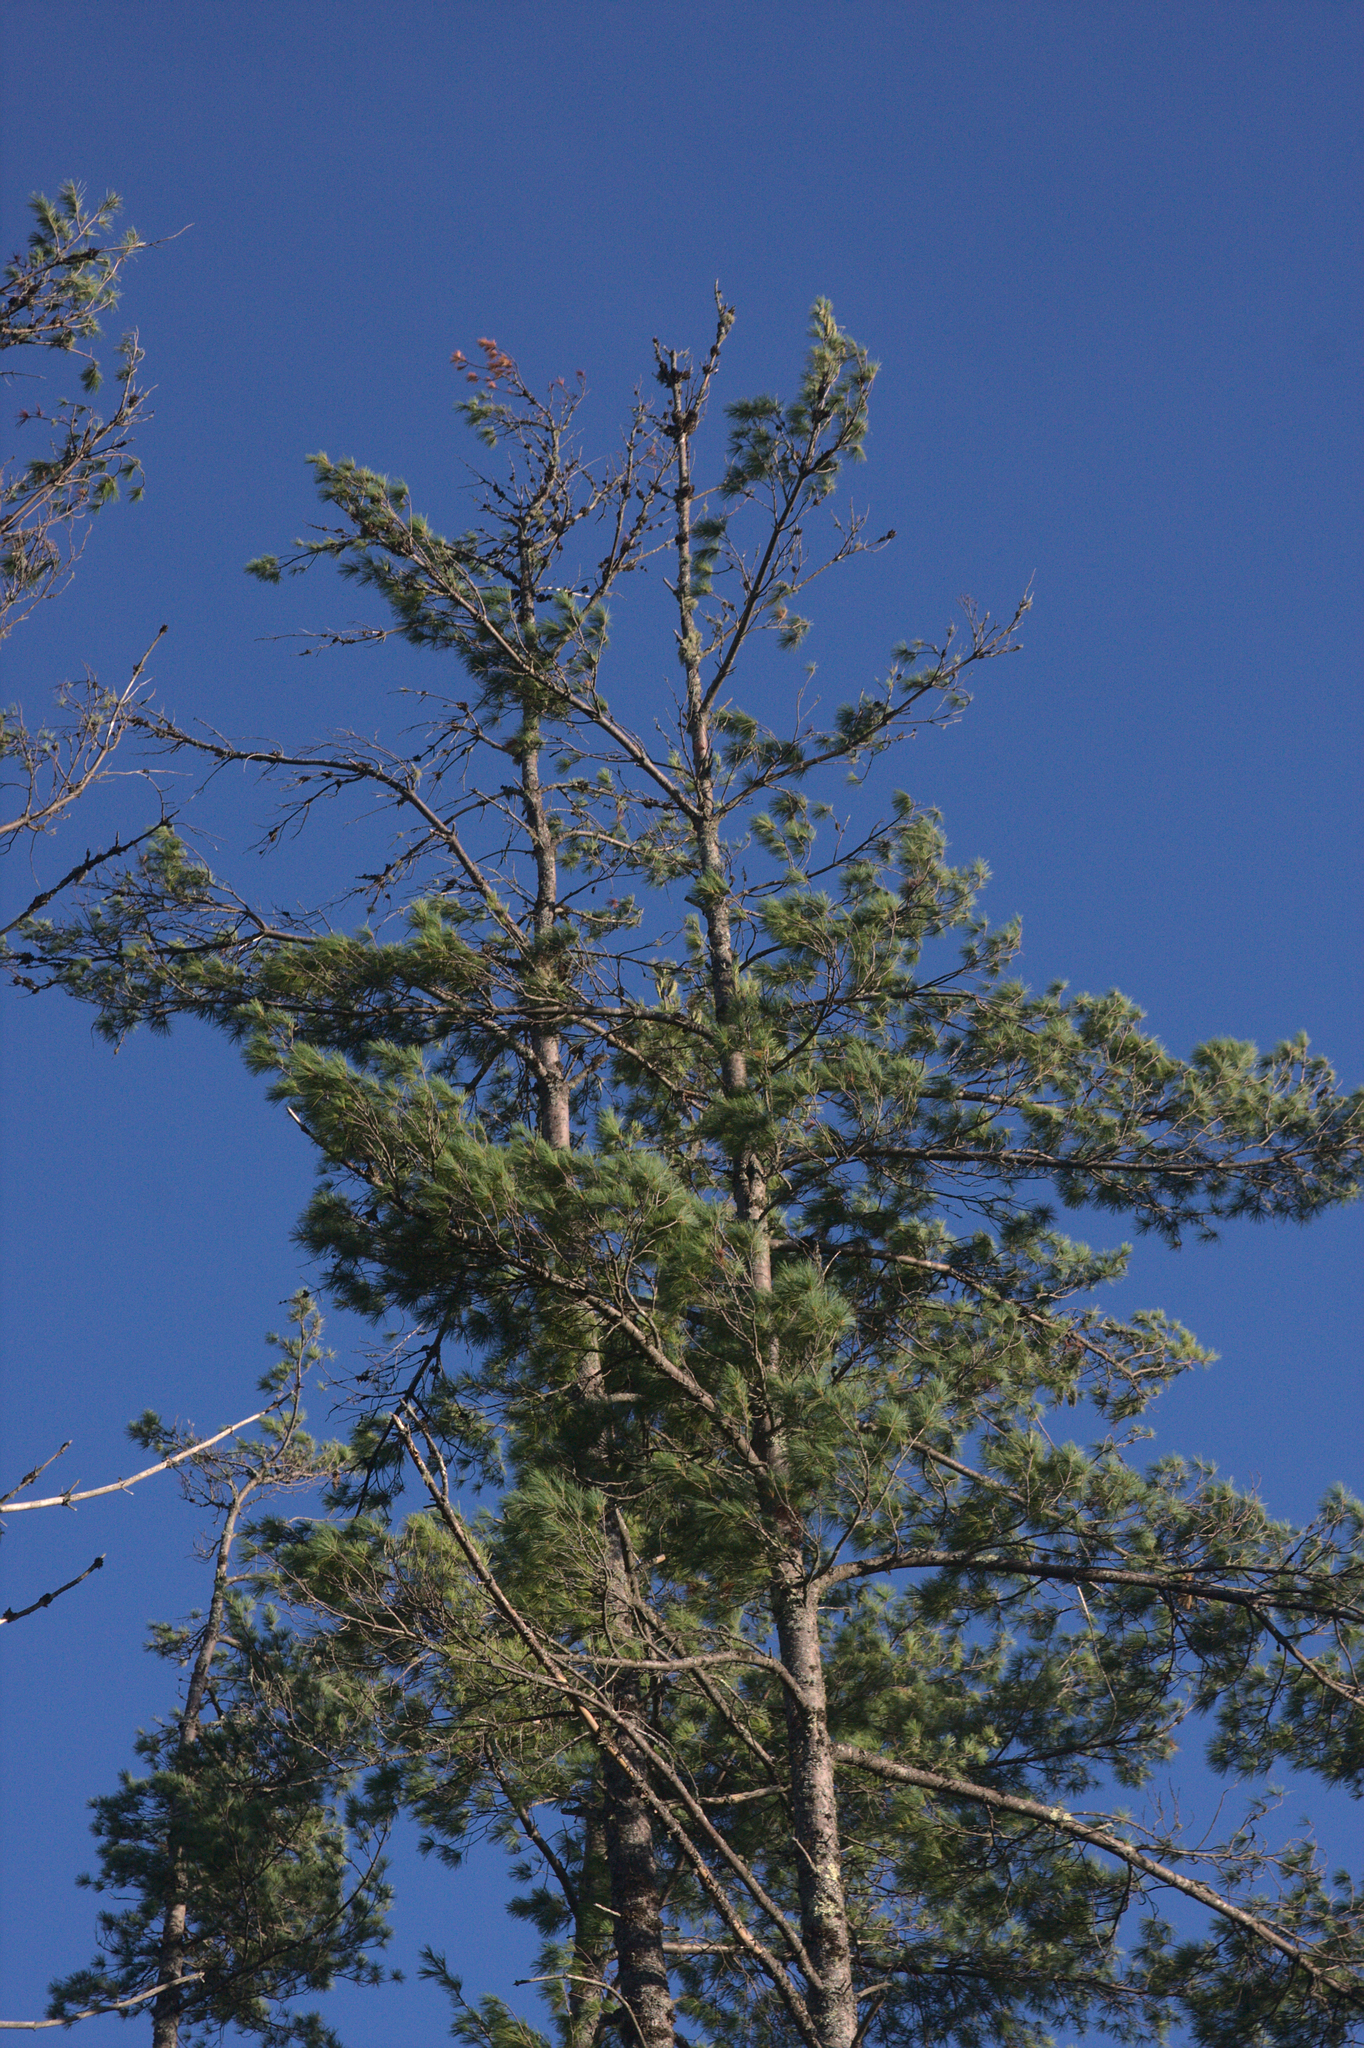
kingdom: Plantae
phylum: Tracheophyta
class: Pinopsida
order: Pinales
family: Pinaceae
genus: Pinus
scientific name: Pinus strobus
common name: Weymouth pine
